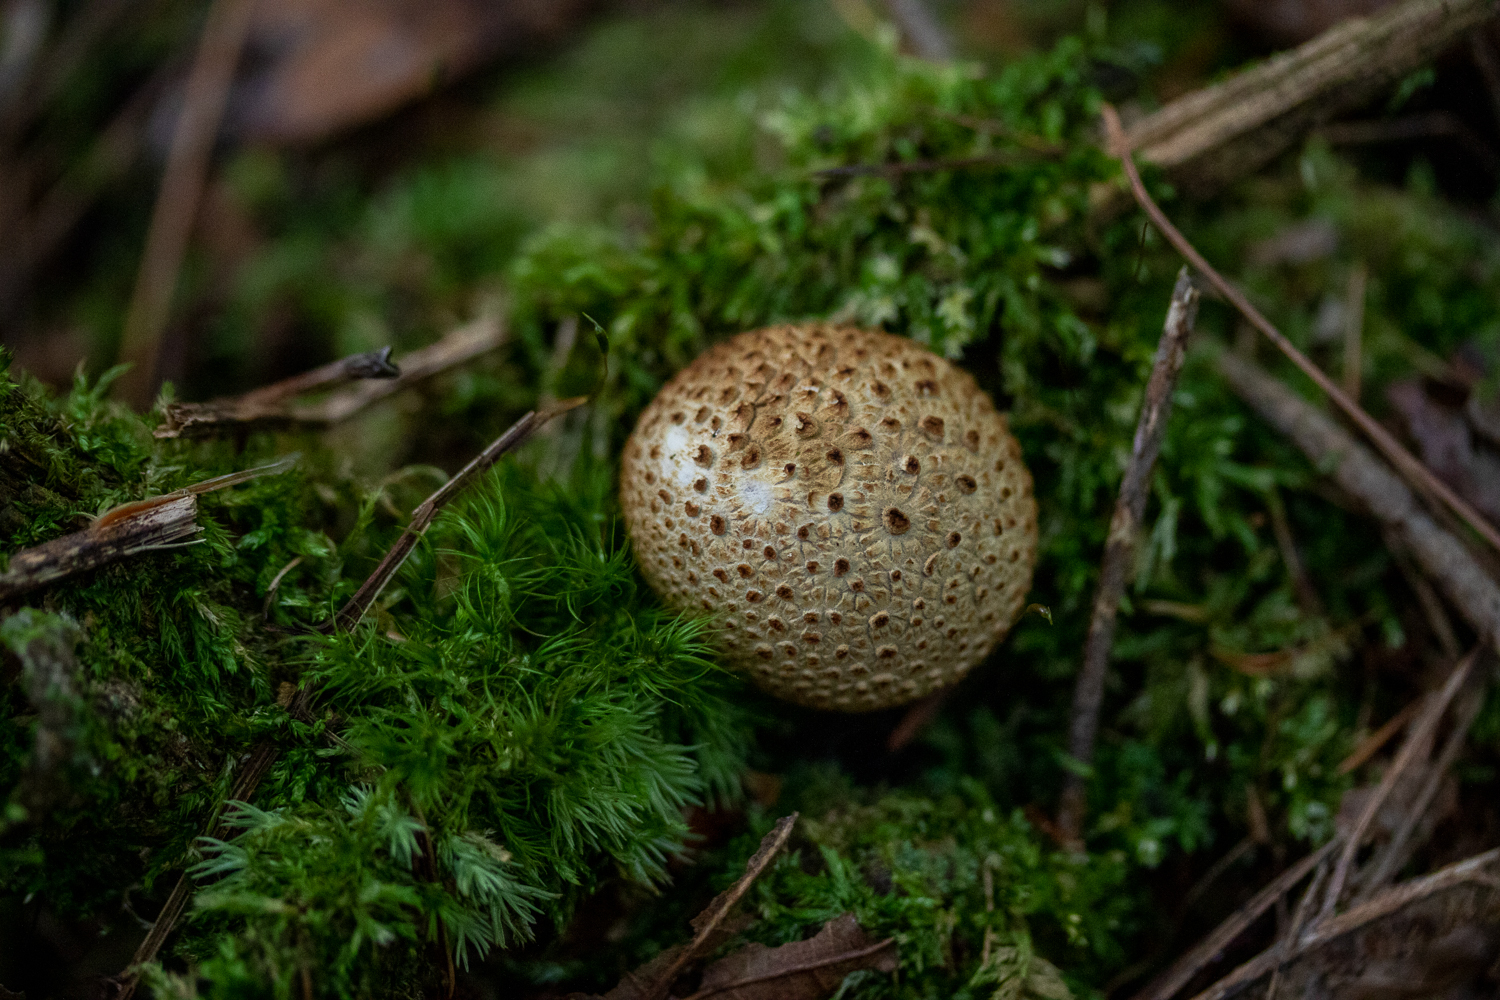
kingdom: Fungi
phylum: Basidiomycota
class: Agaricomycetes
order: Boletales
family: Sclerodermataceae
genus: Scleroderma
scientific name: Scleroderma citrinum
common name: Common earthball
